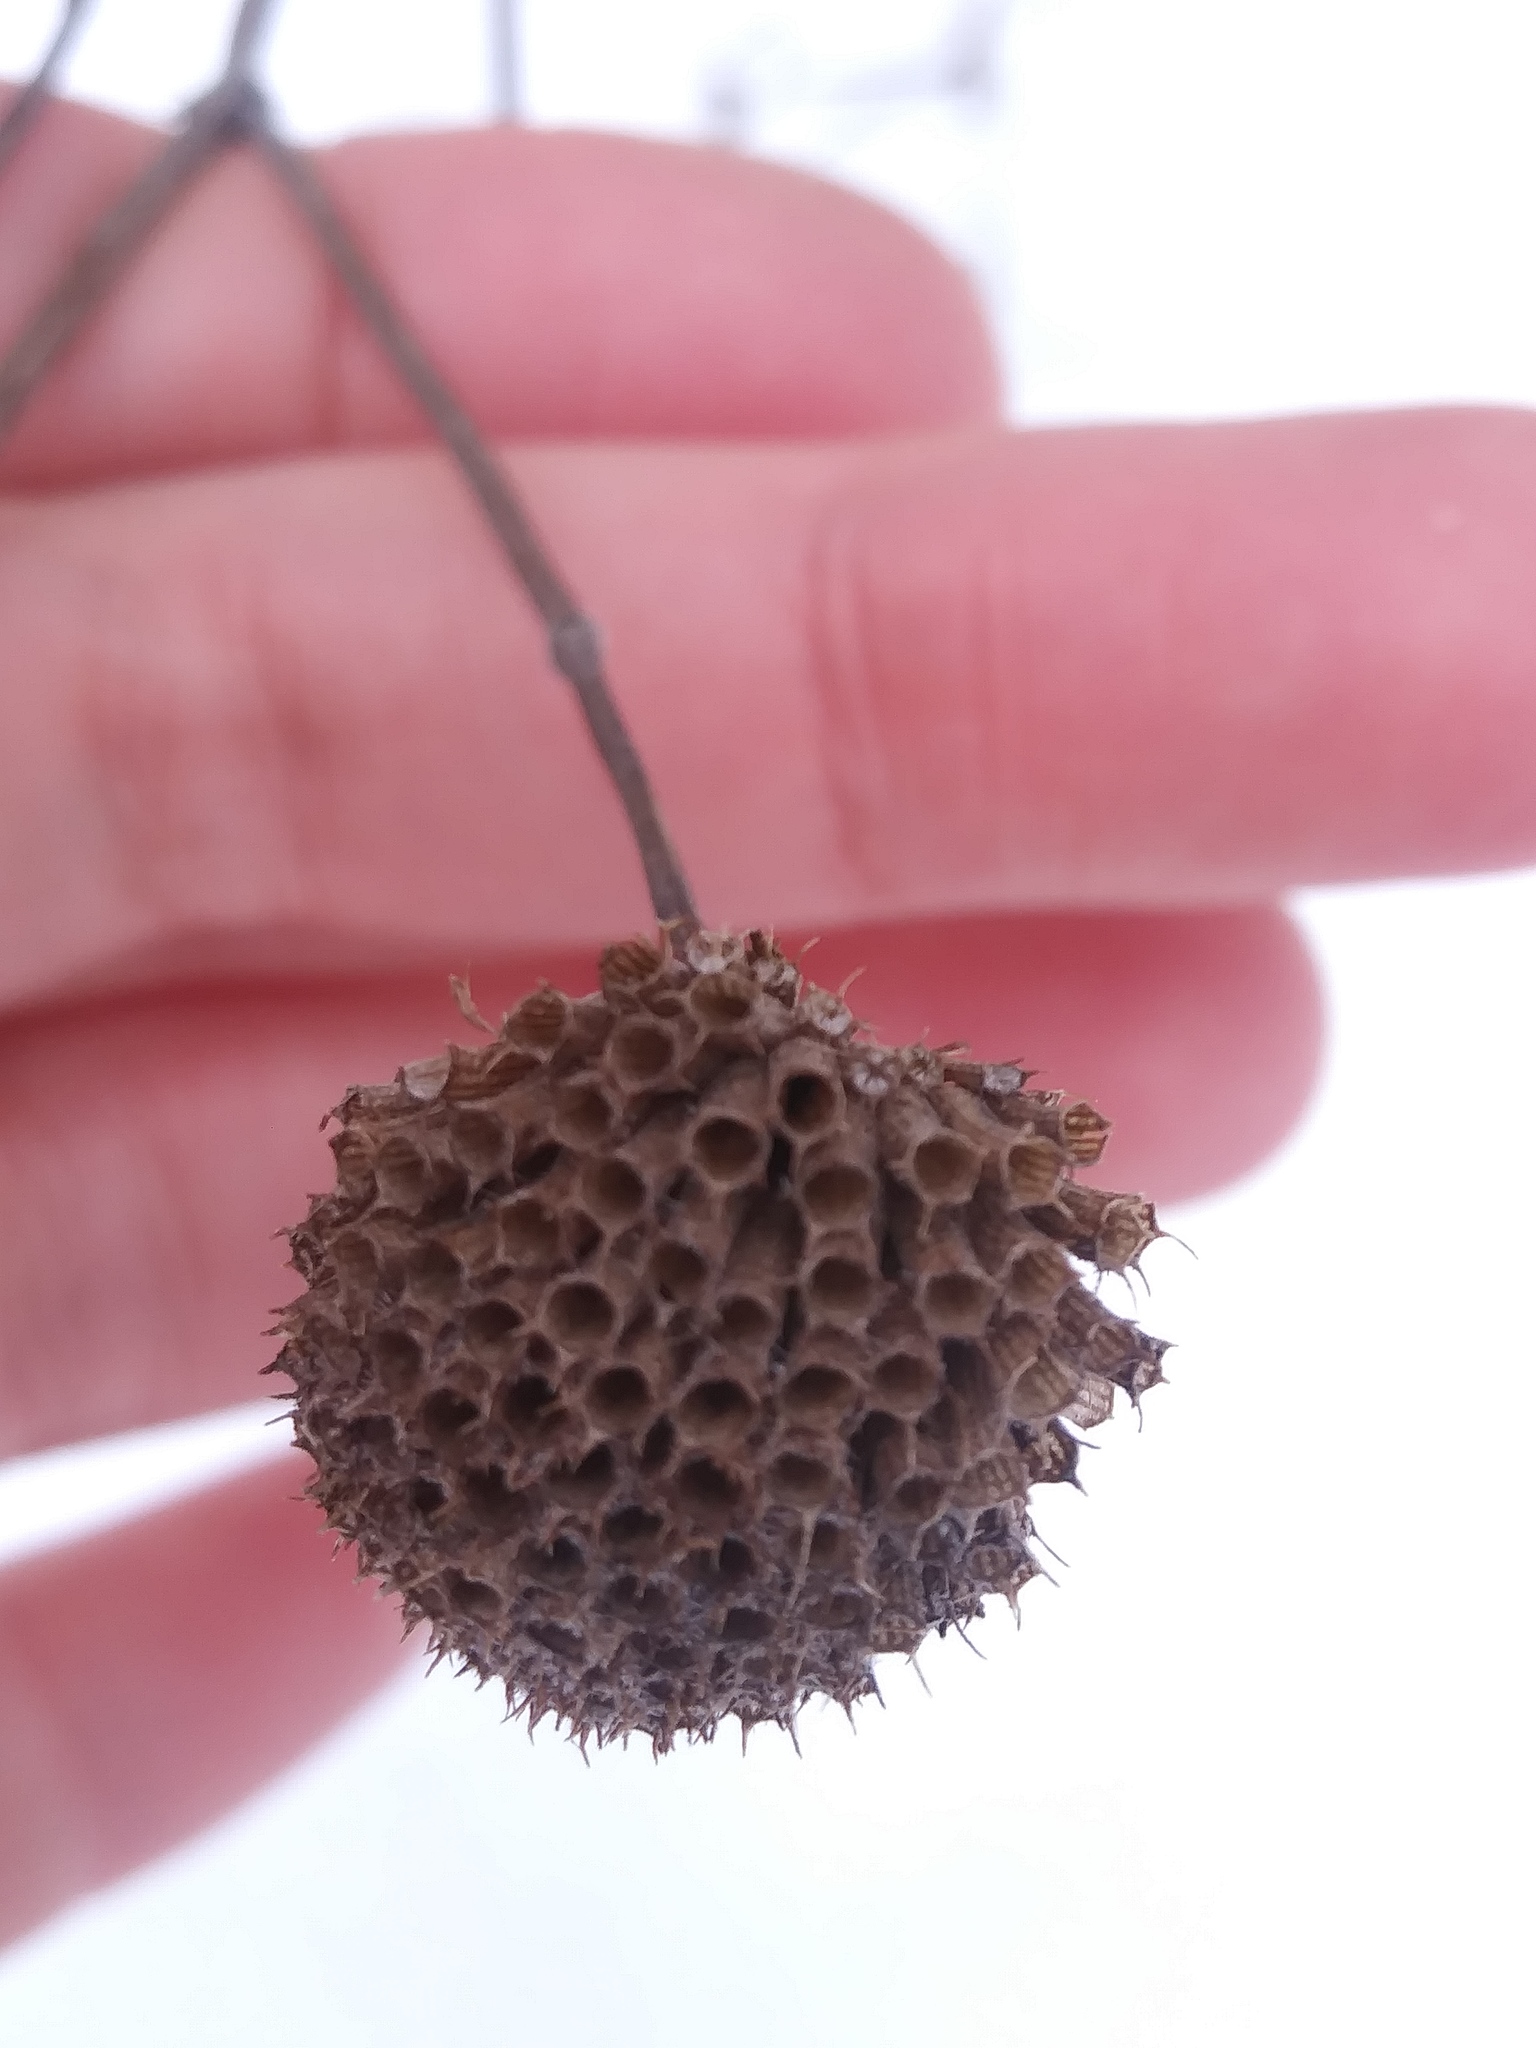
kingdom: Plantae
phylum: Tracheophyta
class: Magnoliopsida
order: Lamiales
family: Lamiaceae
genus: Monarda
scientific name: Monarda fistulosa
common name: Purple beebalm
